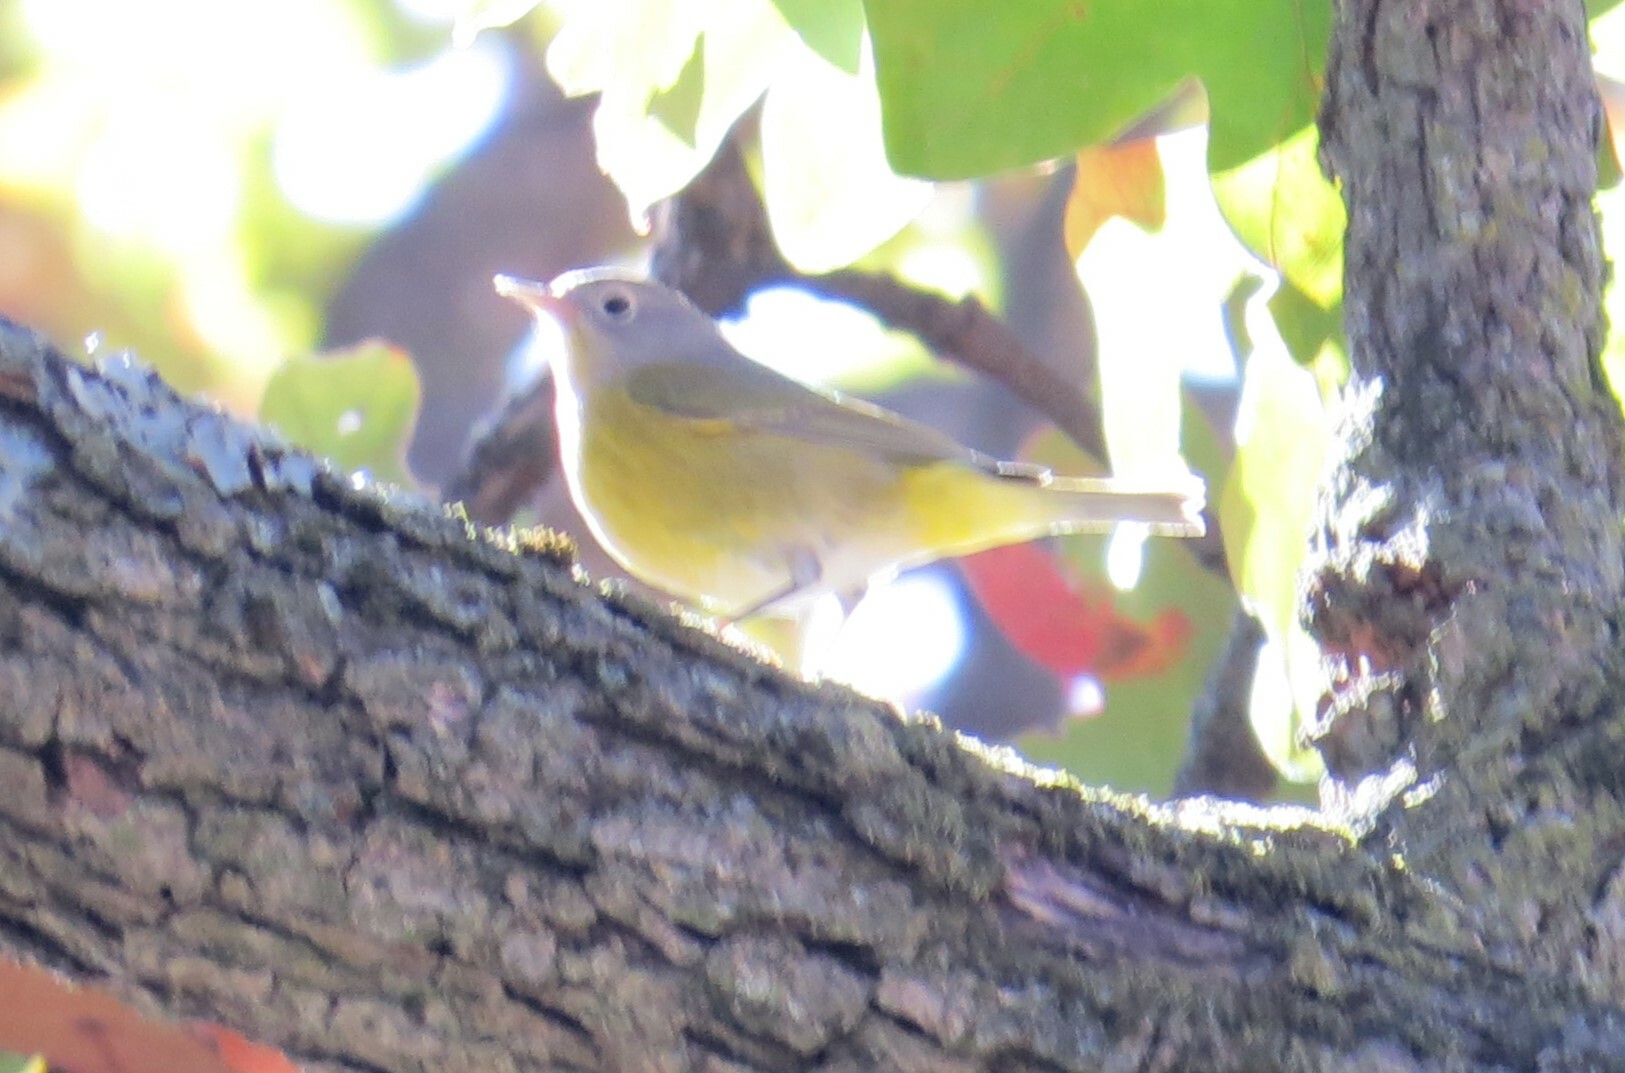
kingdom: Animalia
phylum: Chordata
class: Aves
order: Passeriformes
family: Parulidae
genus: Leiothlypis
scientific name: Leiothlypis ruficapilla
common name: Nashville warbler
